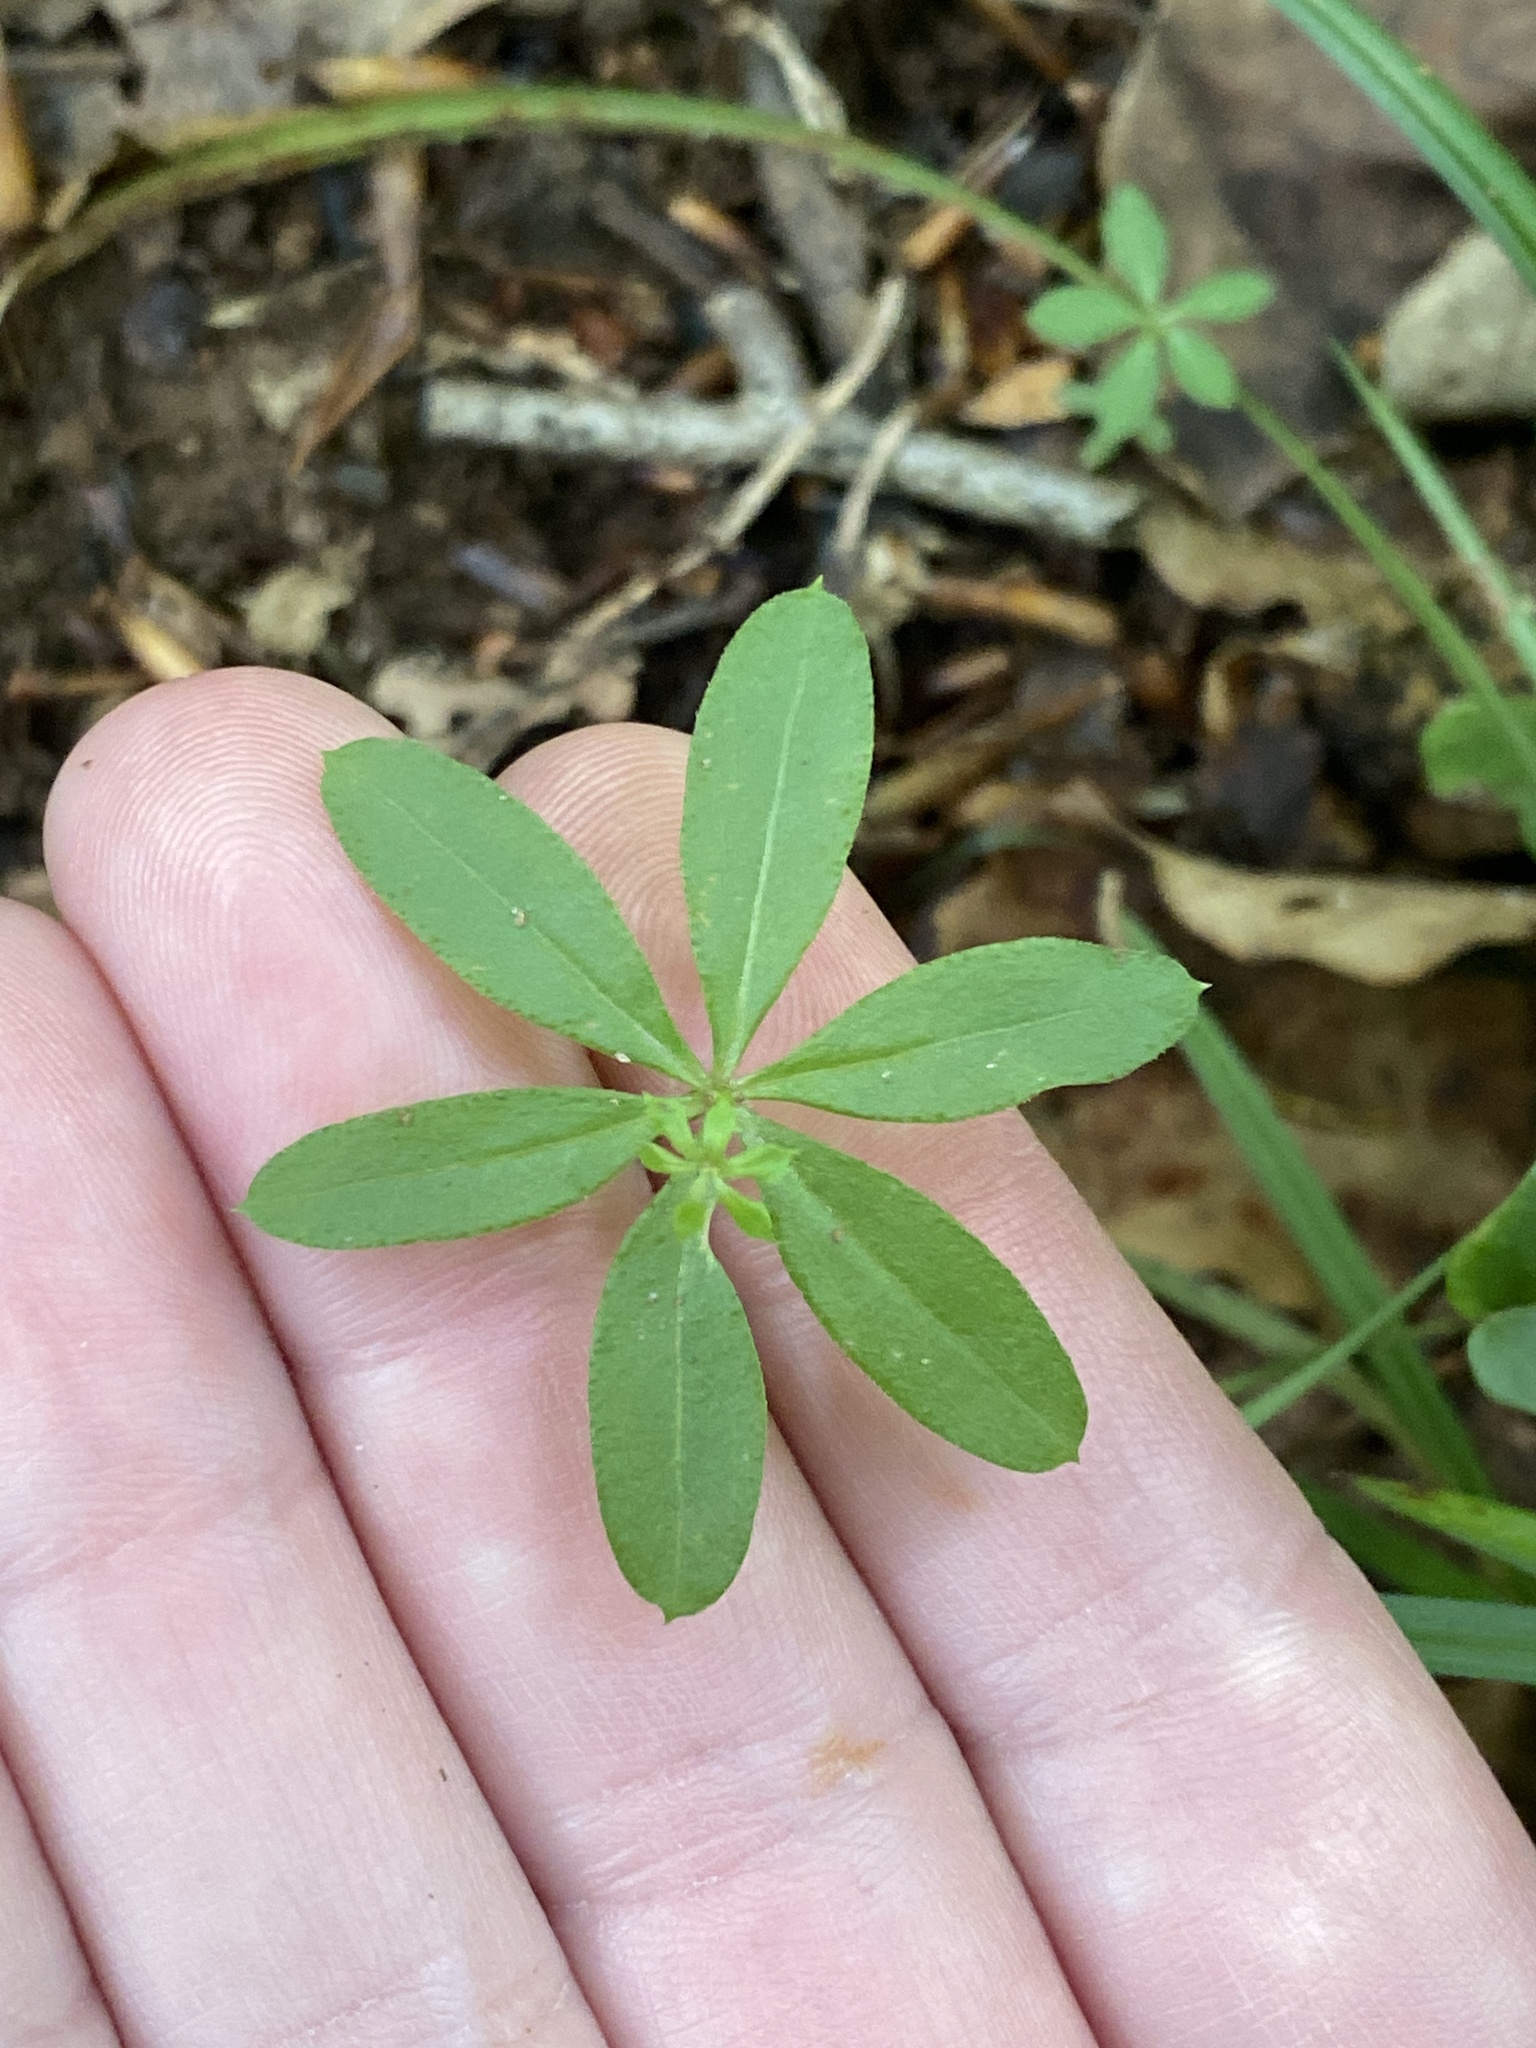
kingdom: Plantae
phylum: Tracheophyta
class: Magnoliopsida
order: Gentianales
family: Rubiaceae
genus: Galium
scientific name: Galium triflorum
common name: Fragrant bedstraw
